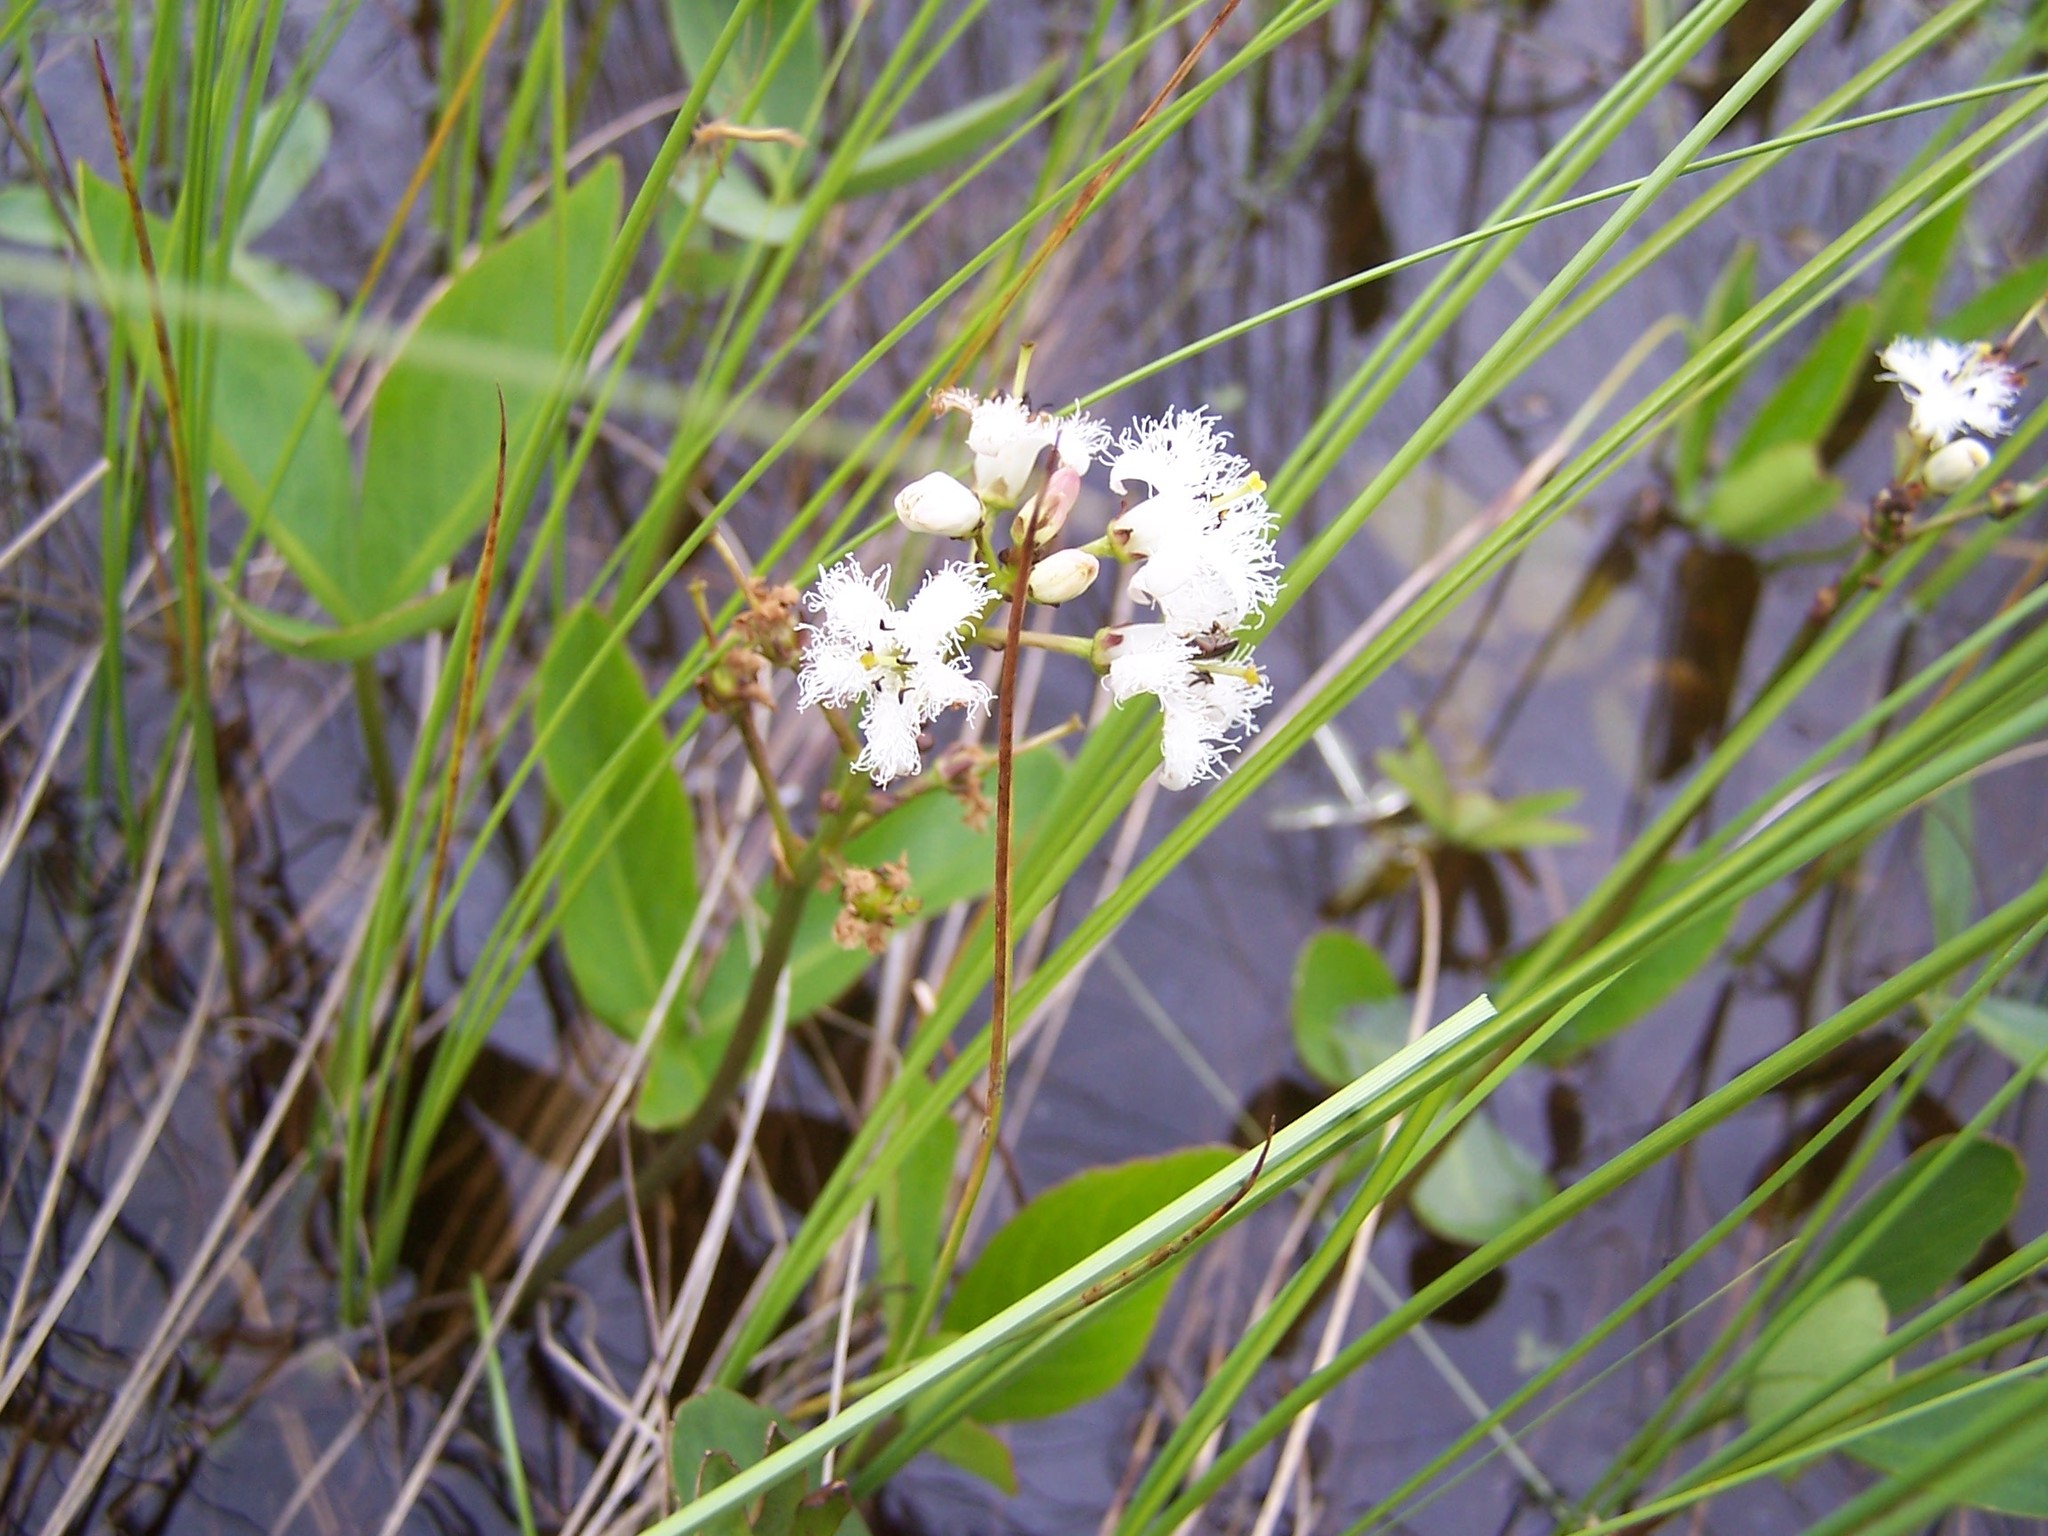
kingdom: Plantae
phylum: Tracheophyta
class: Magnoliopsida
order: Asterales
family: Menyanthaceae
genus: Menyanthes
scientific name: Menyanthes trifoliata
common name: Bogbean
